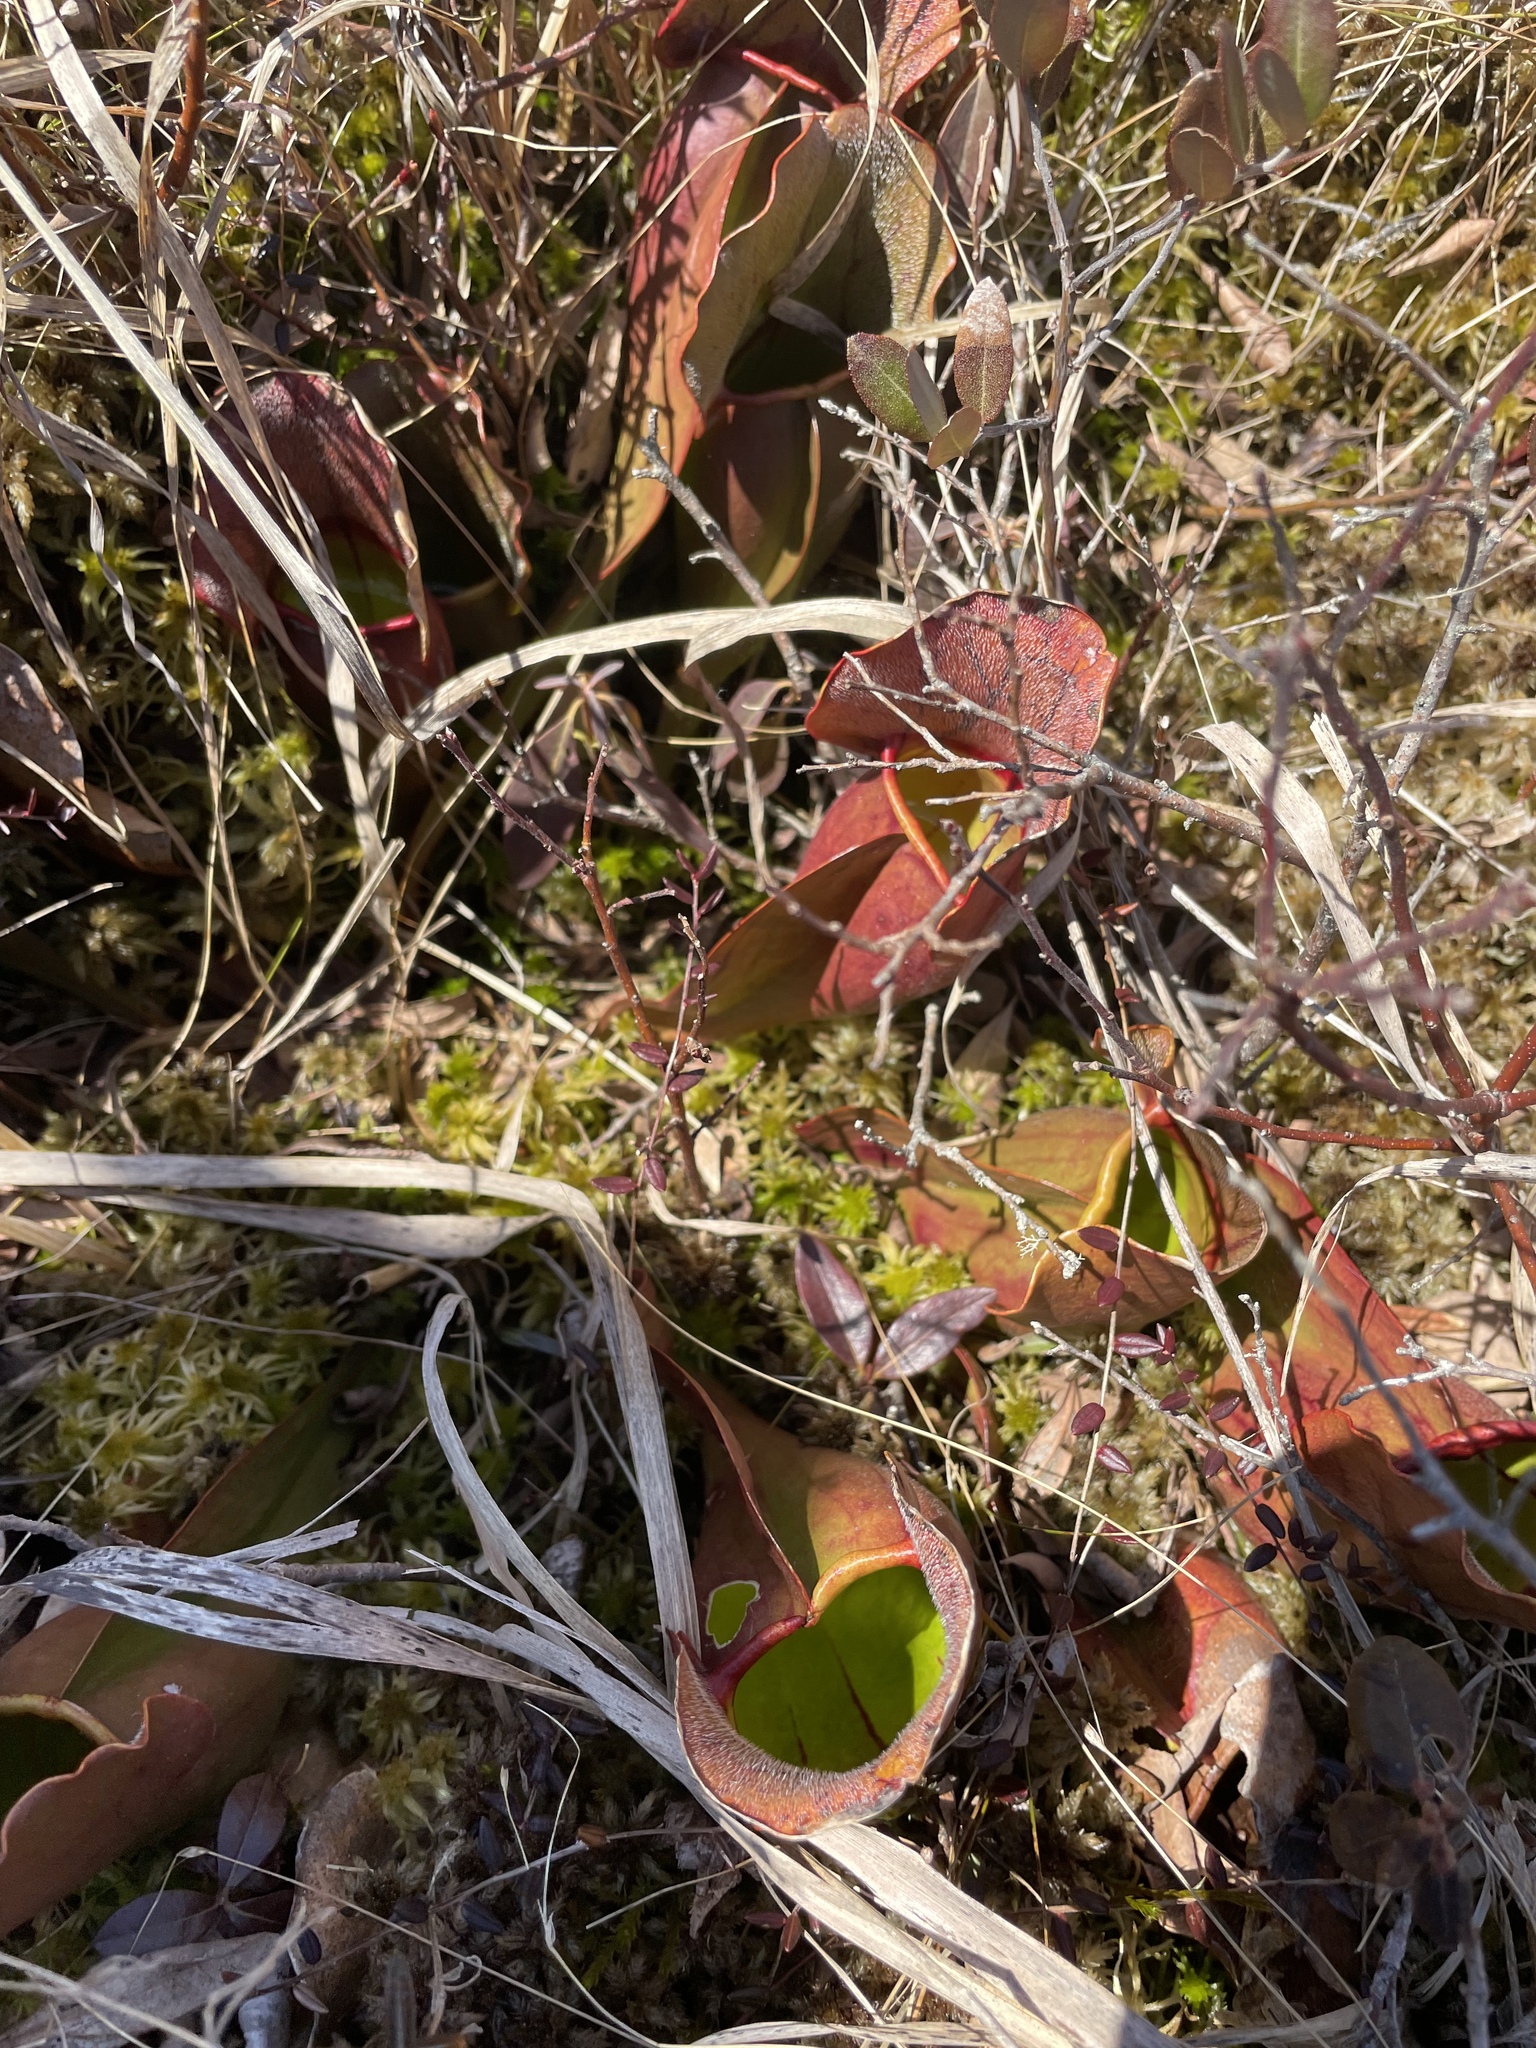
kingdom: Plantae
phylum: Tracheophyta
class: Magnoliopsida
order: Ericales
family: Sarraceniaceae
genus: Sarracenia
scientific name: Sarracenia purpurea
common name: Pitcherplant
